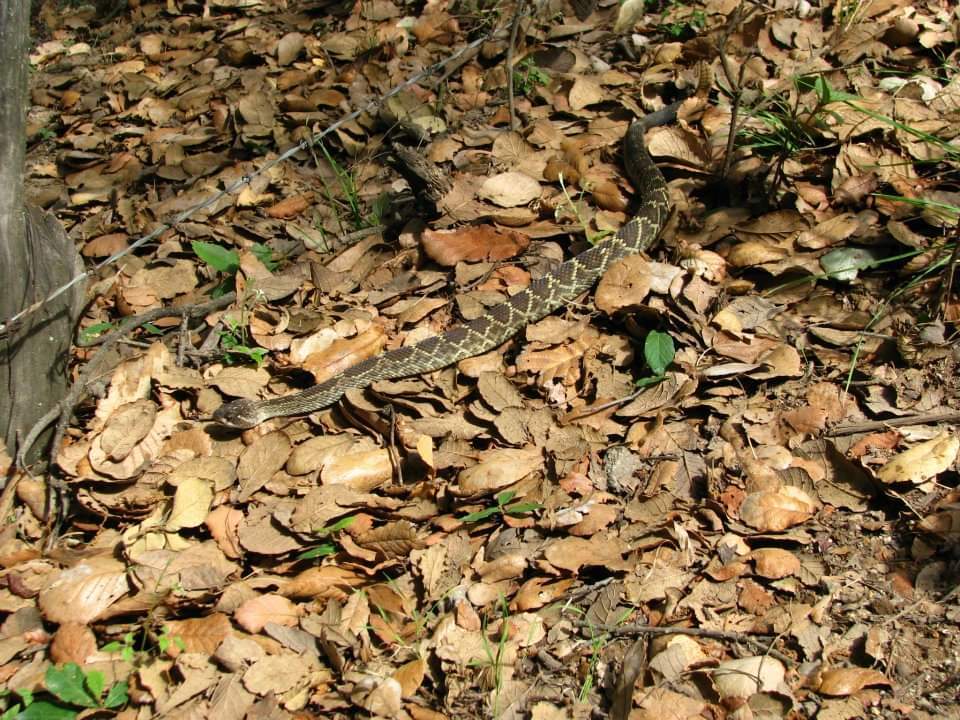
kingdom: Animalia
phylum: Chordata
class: Squamata
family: Viperidae
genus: Crotalus
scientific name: Crotalus molossus
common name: Black tailed rattlesnake
